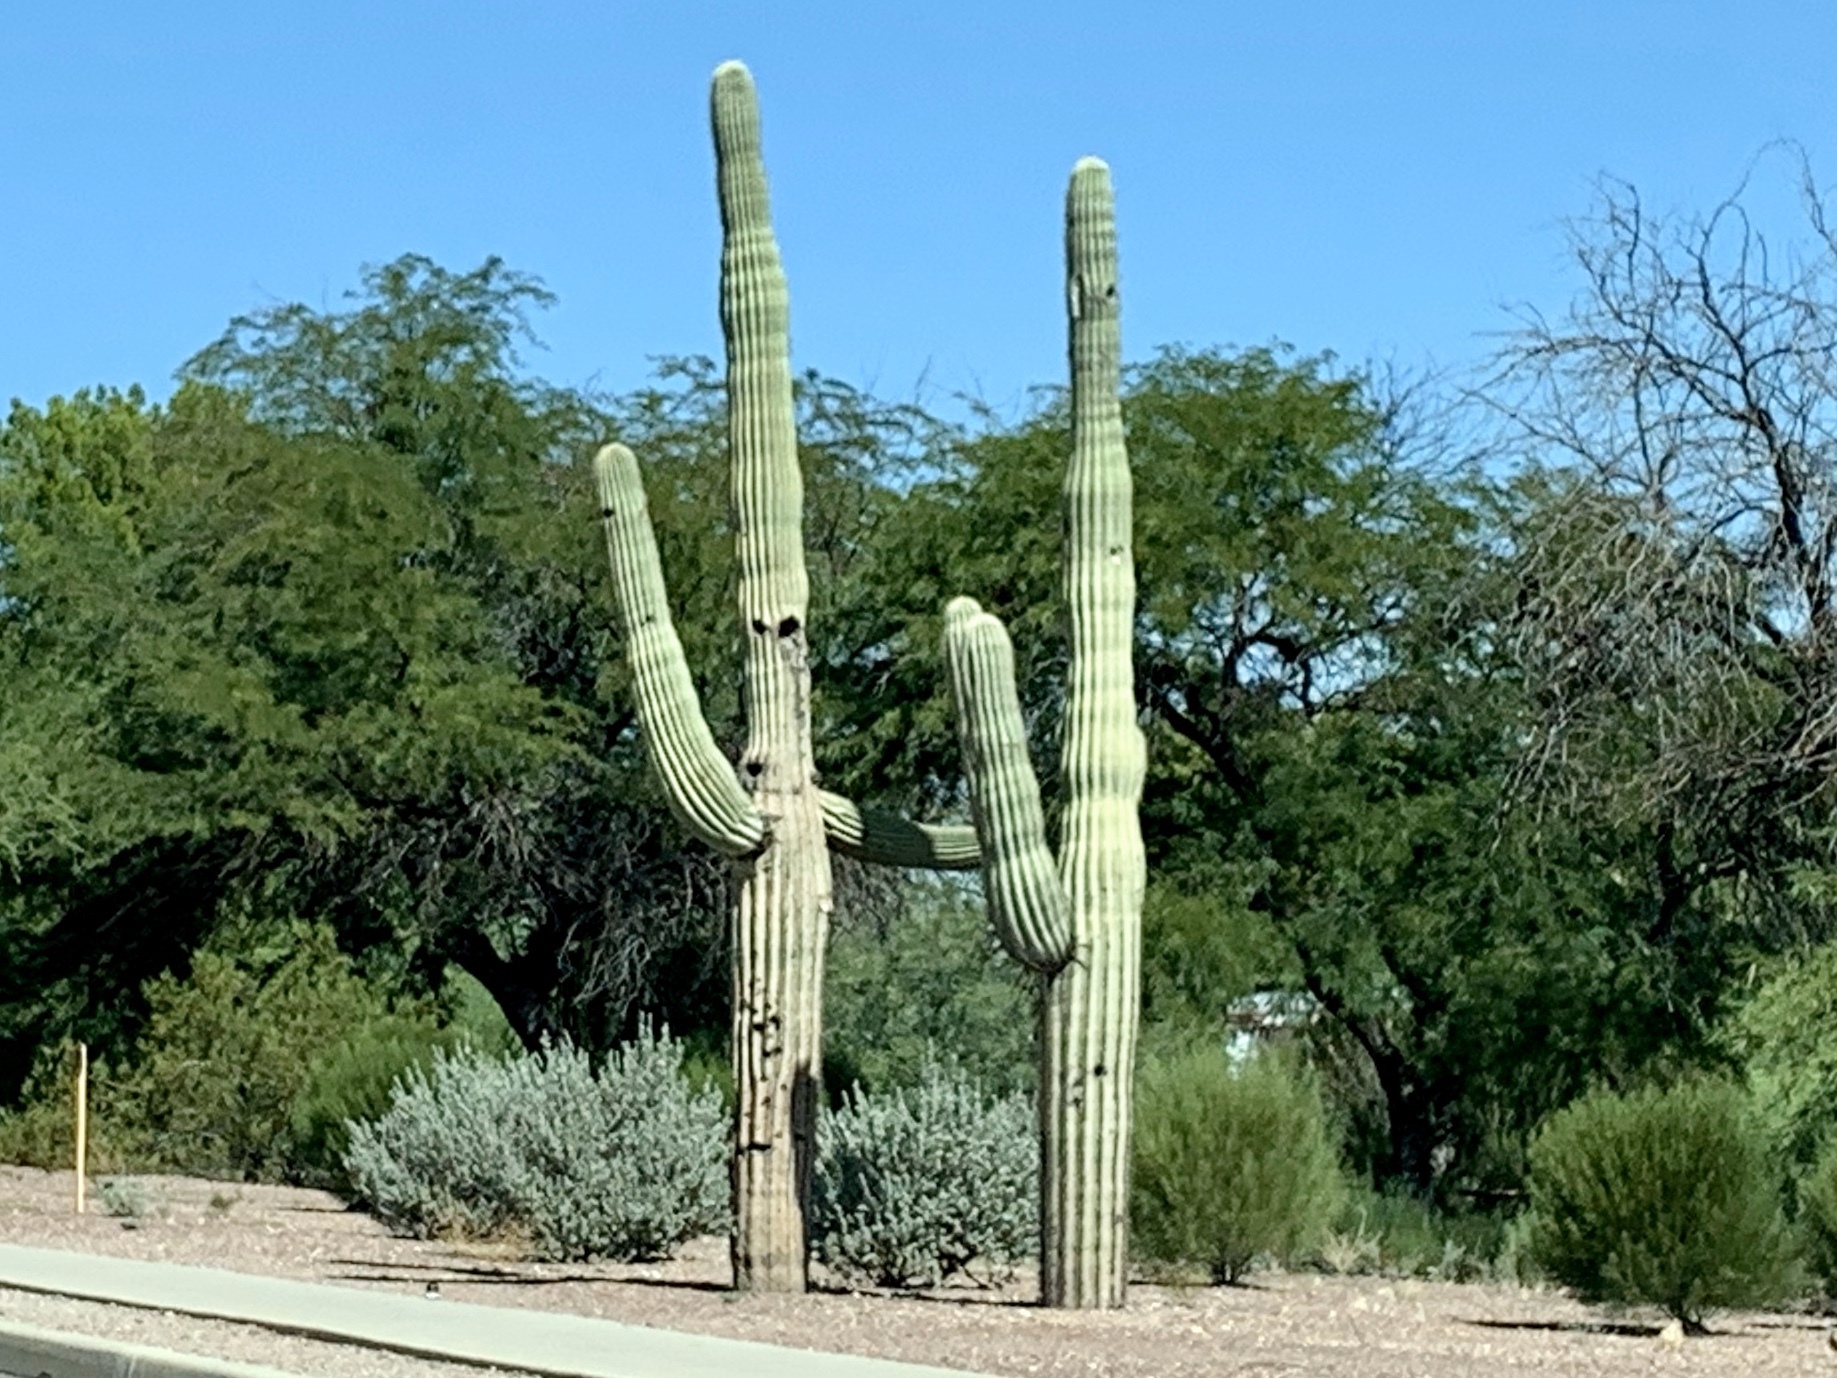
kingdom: Plantae
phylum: Tracheophyta
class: Magnoliopsida
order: Caryophyllales
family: Cactaceae
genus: Carnegiea
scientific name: Carnegiea gigantea
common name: Saguaro
